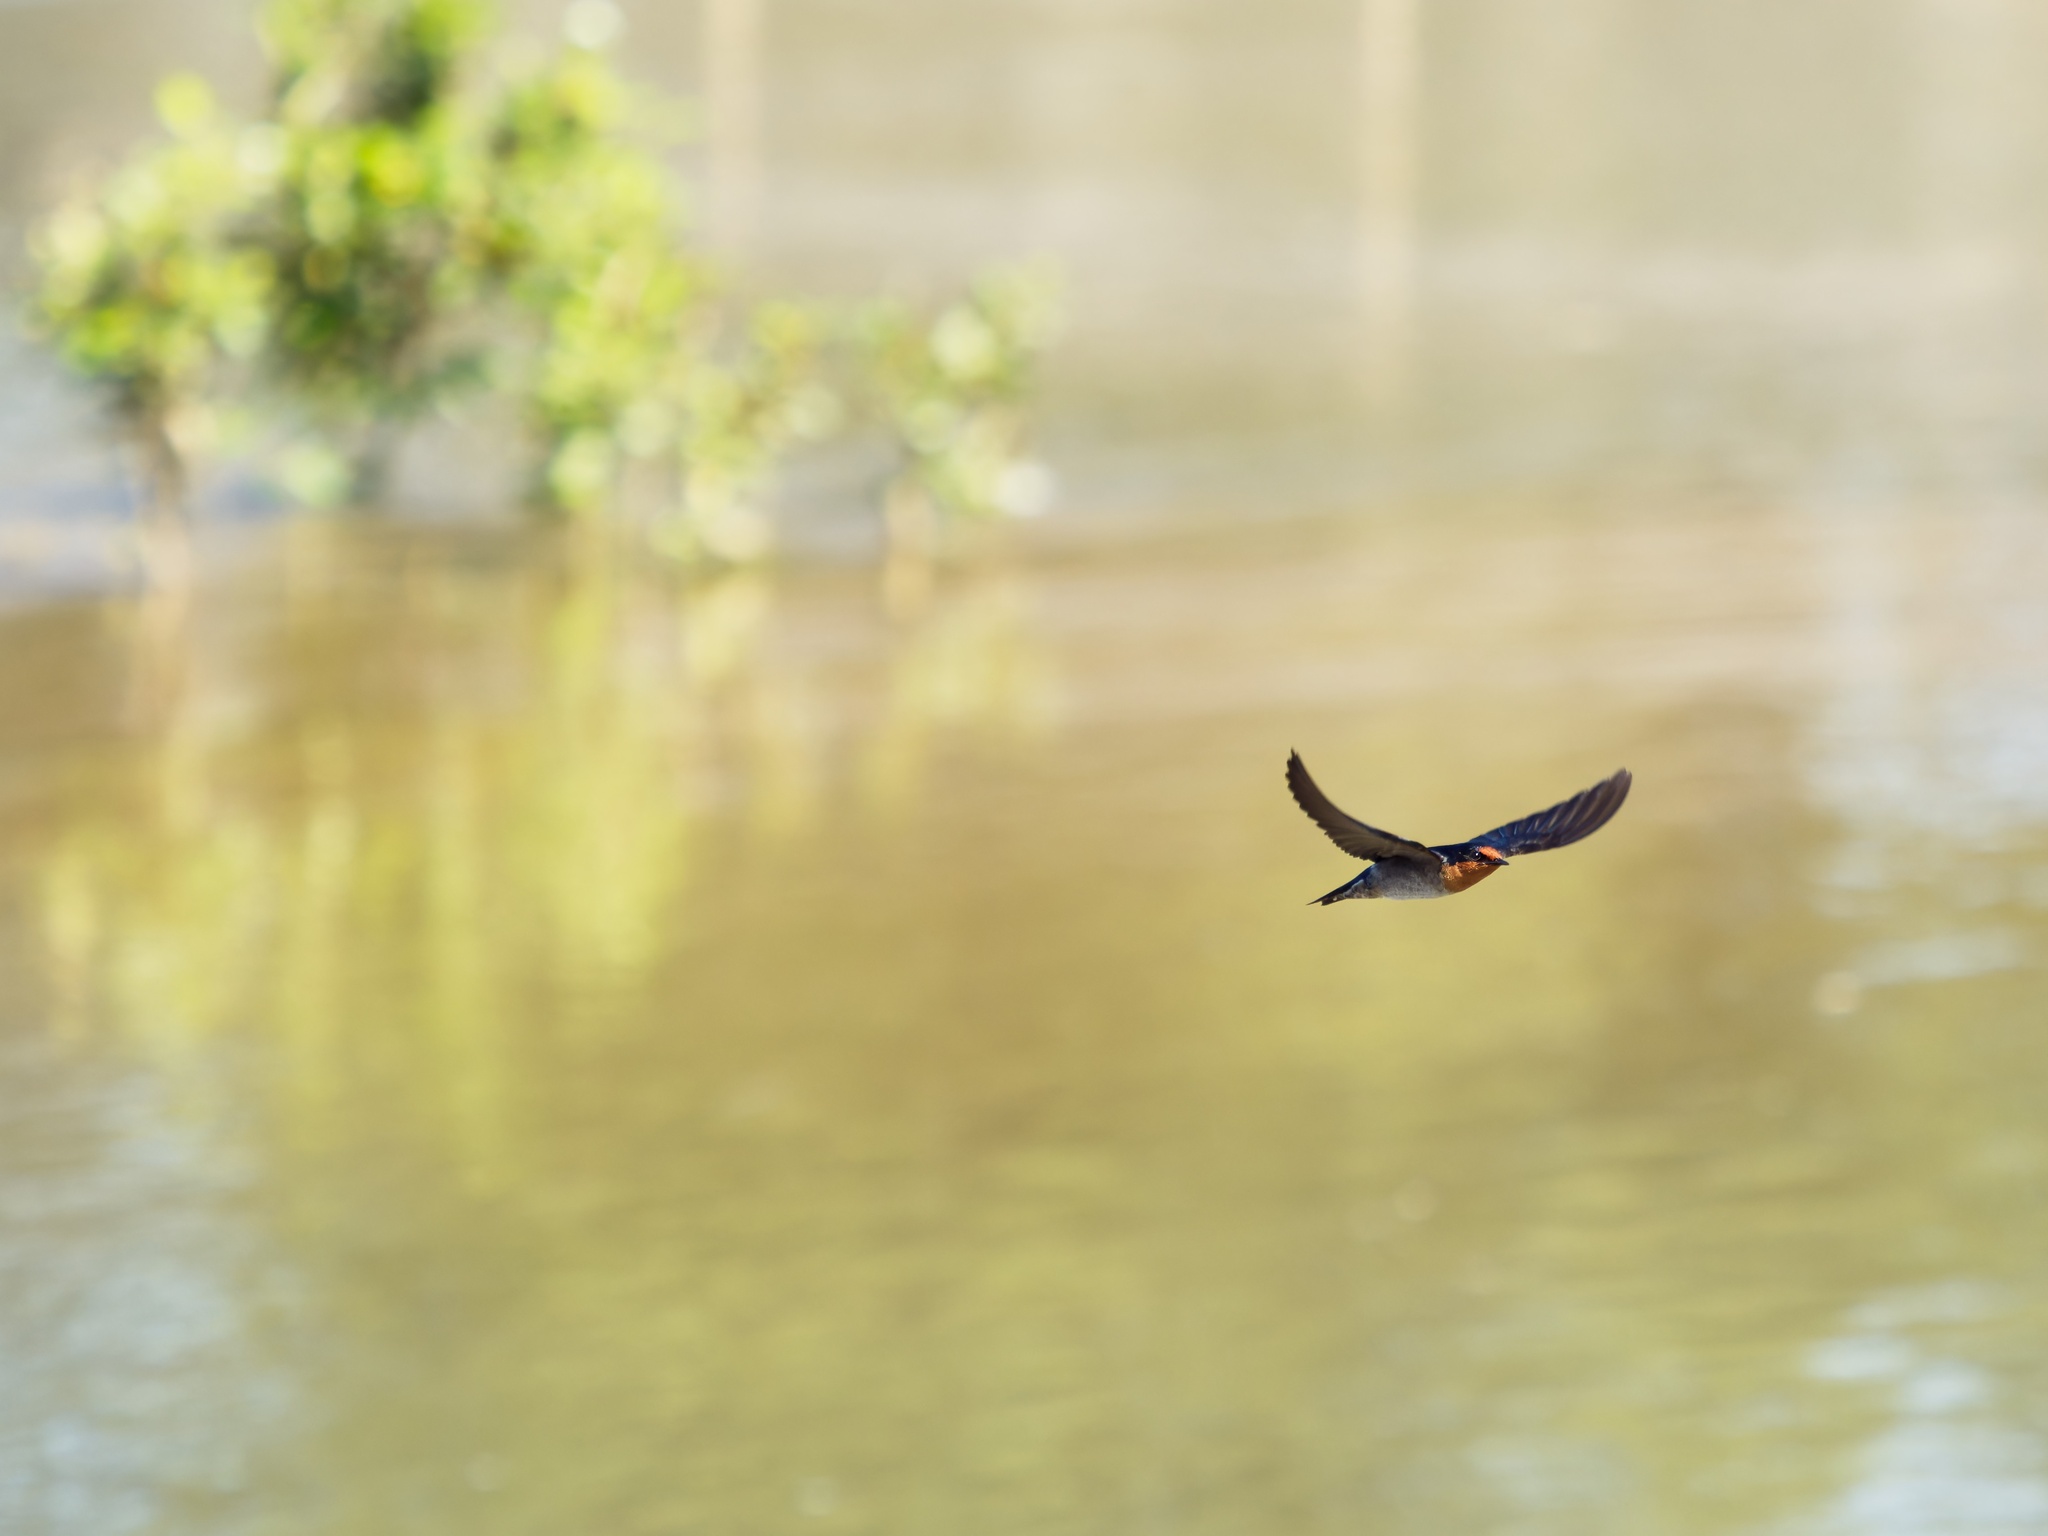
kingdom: Animalia
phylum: Chordata
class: Aves
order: Passeriformes
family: Hirundinidae
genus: Hirundo
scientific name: Hirundo tahitica
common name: Pacific swallow
